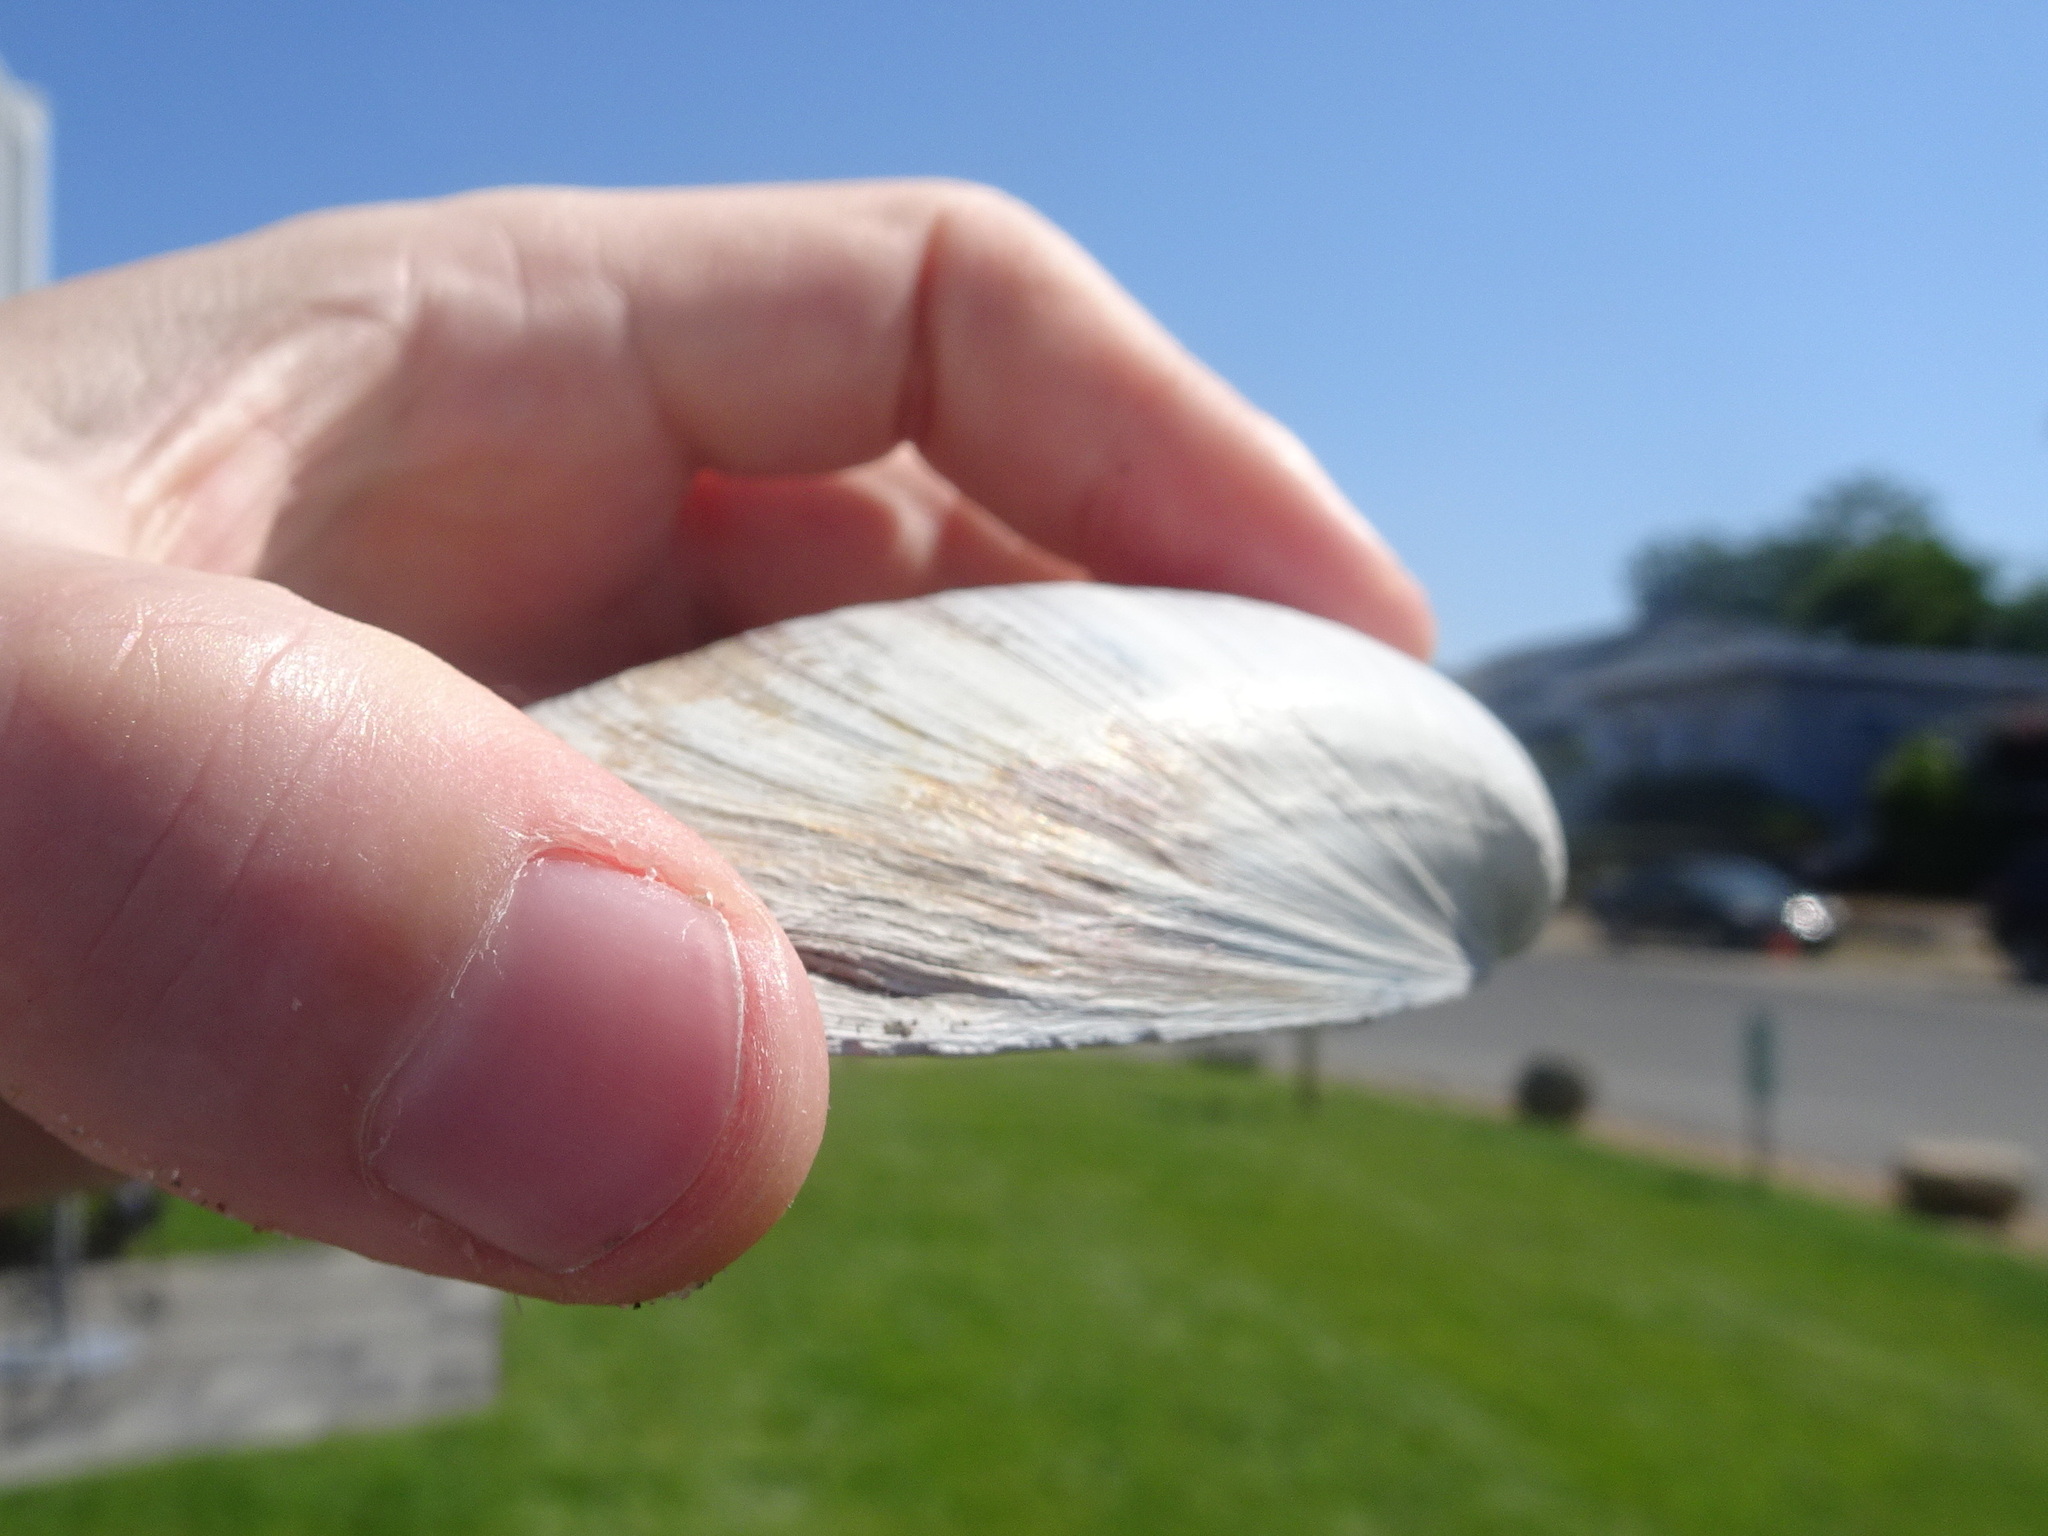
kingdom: Animalia
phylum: Mollusca
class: Bivalvia
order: Venerida
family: Mactridae
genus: Spisula
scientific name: Spisula solidissima
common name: Atlantic surf clam
